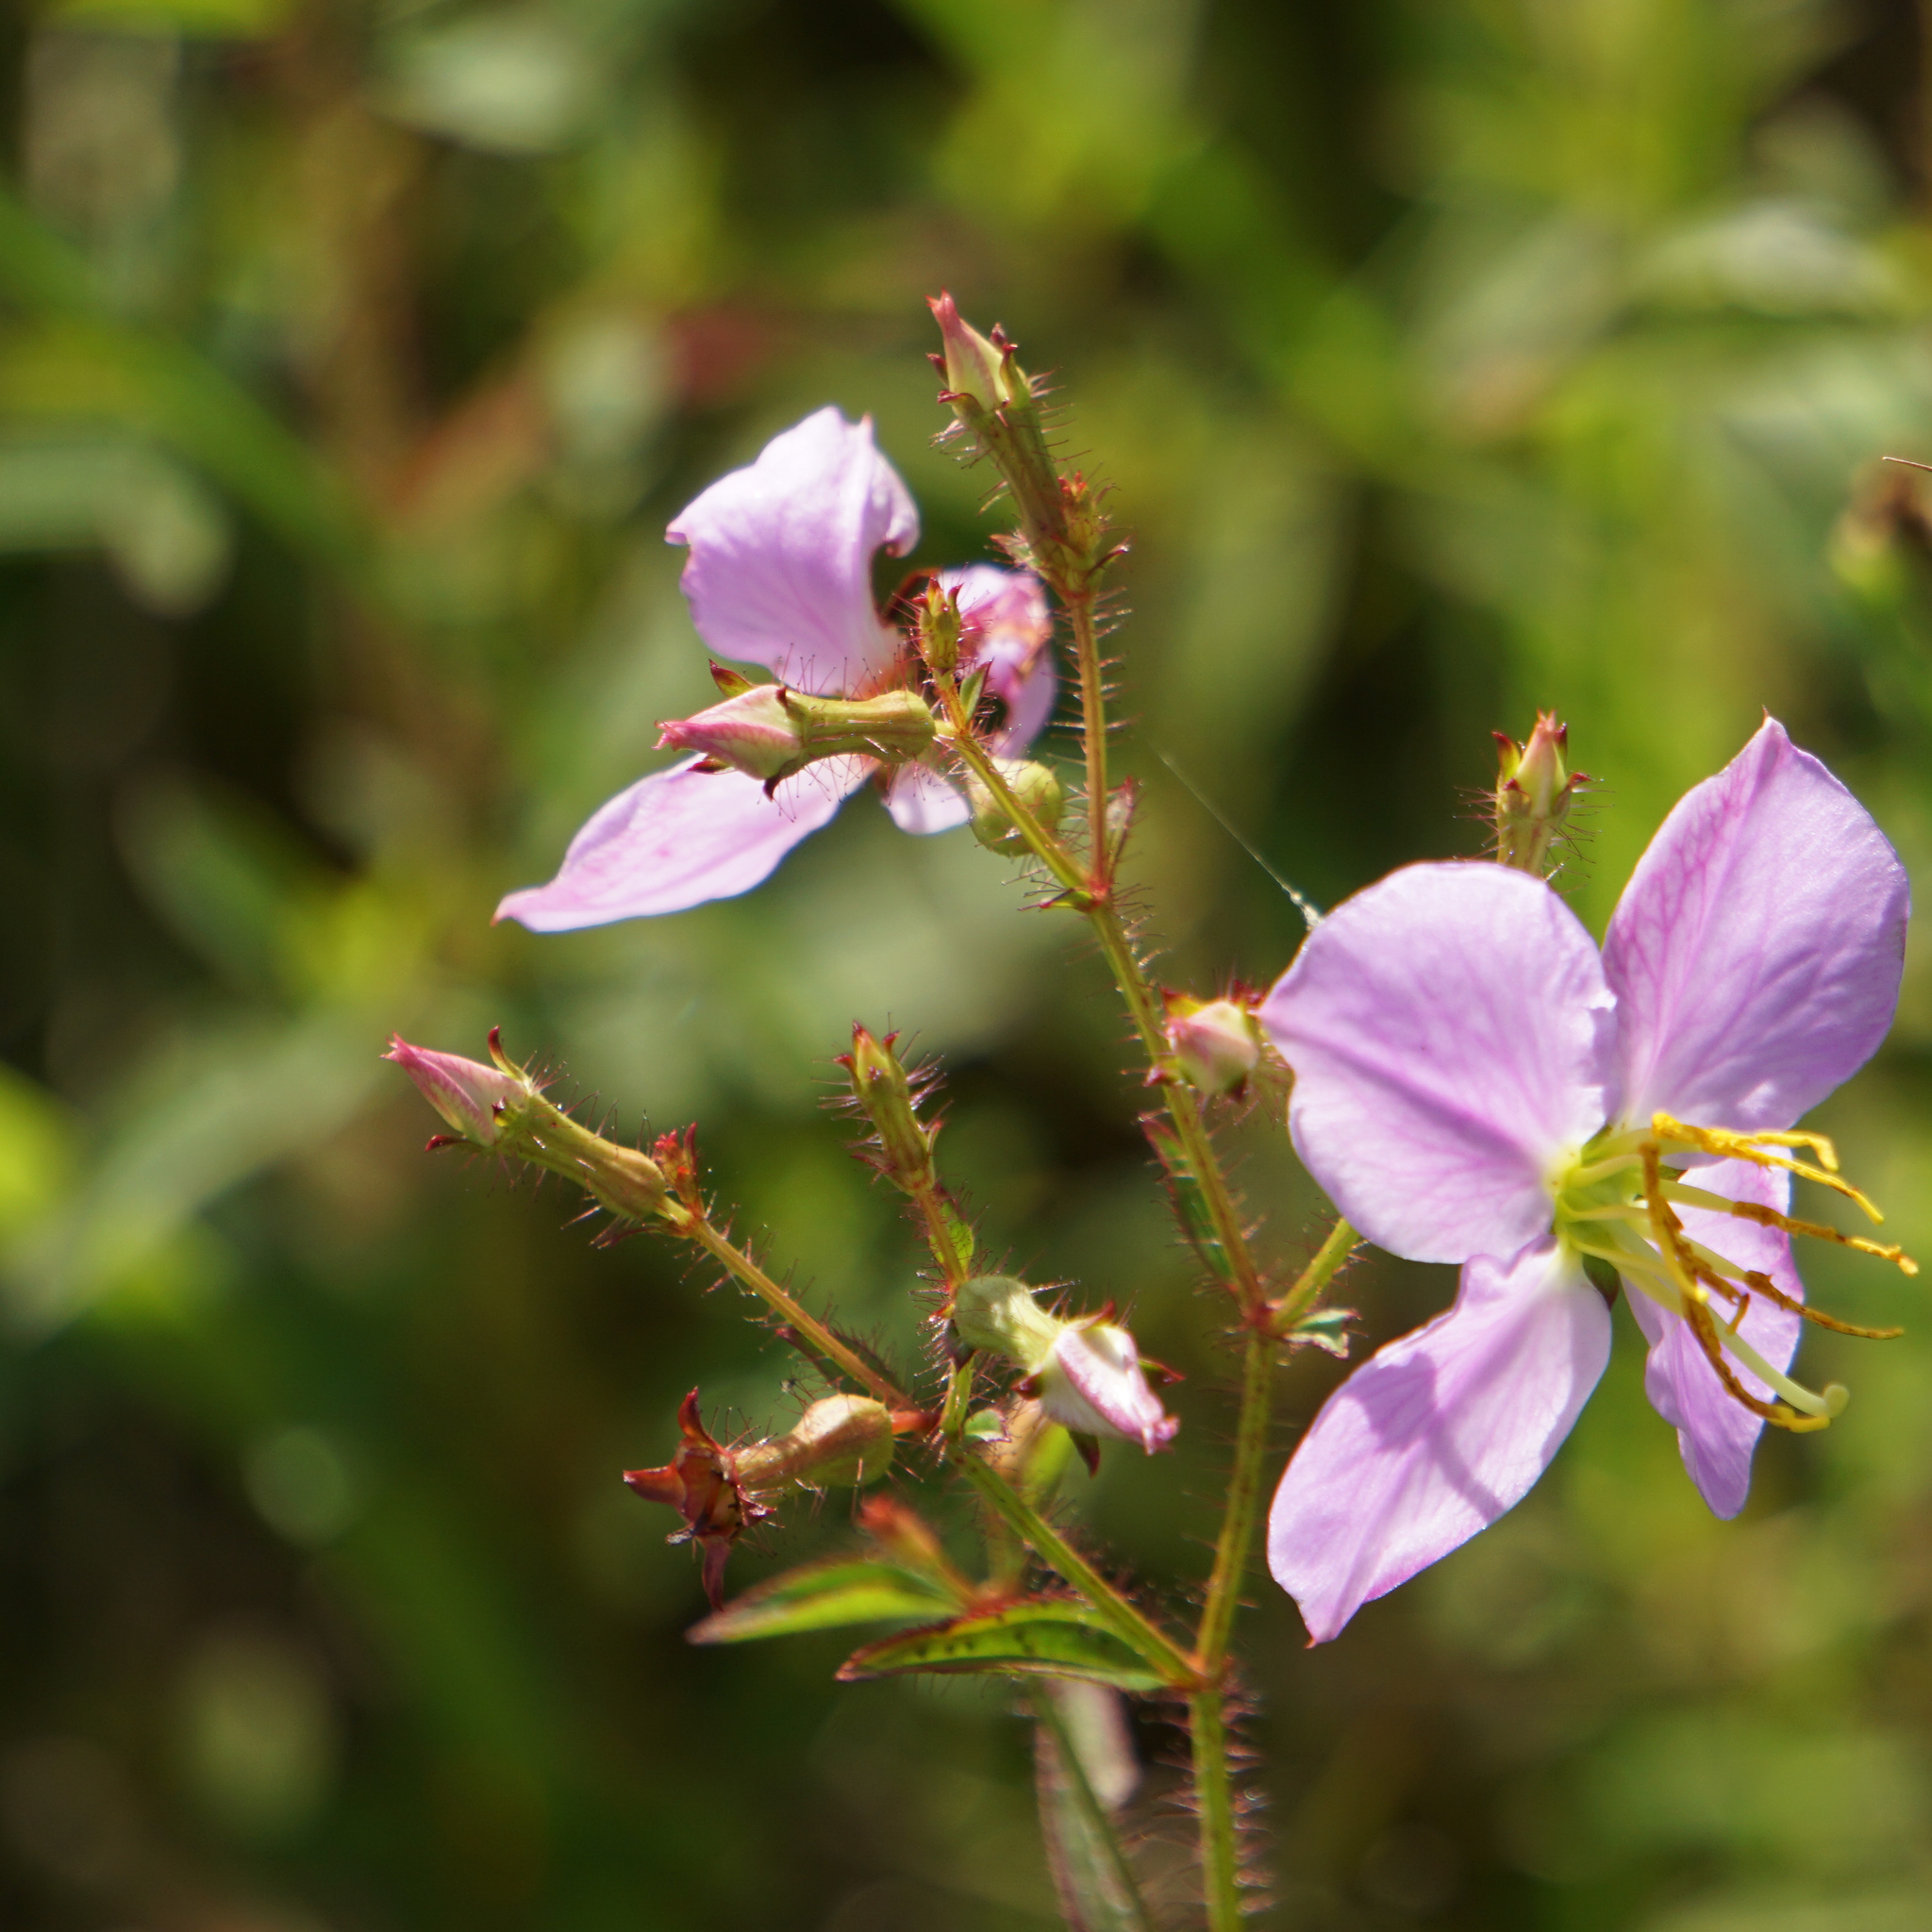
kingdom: Plantae
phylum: Tracheophyta
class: Magnoliopsida
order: Myrtales
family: Melastomataceae
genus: Rhexia
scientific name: Rhexia mariana
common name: Dull meadow-pitcher
